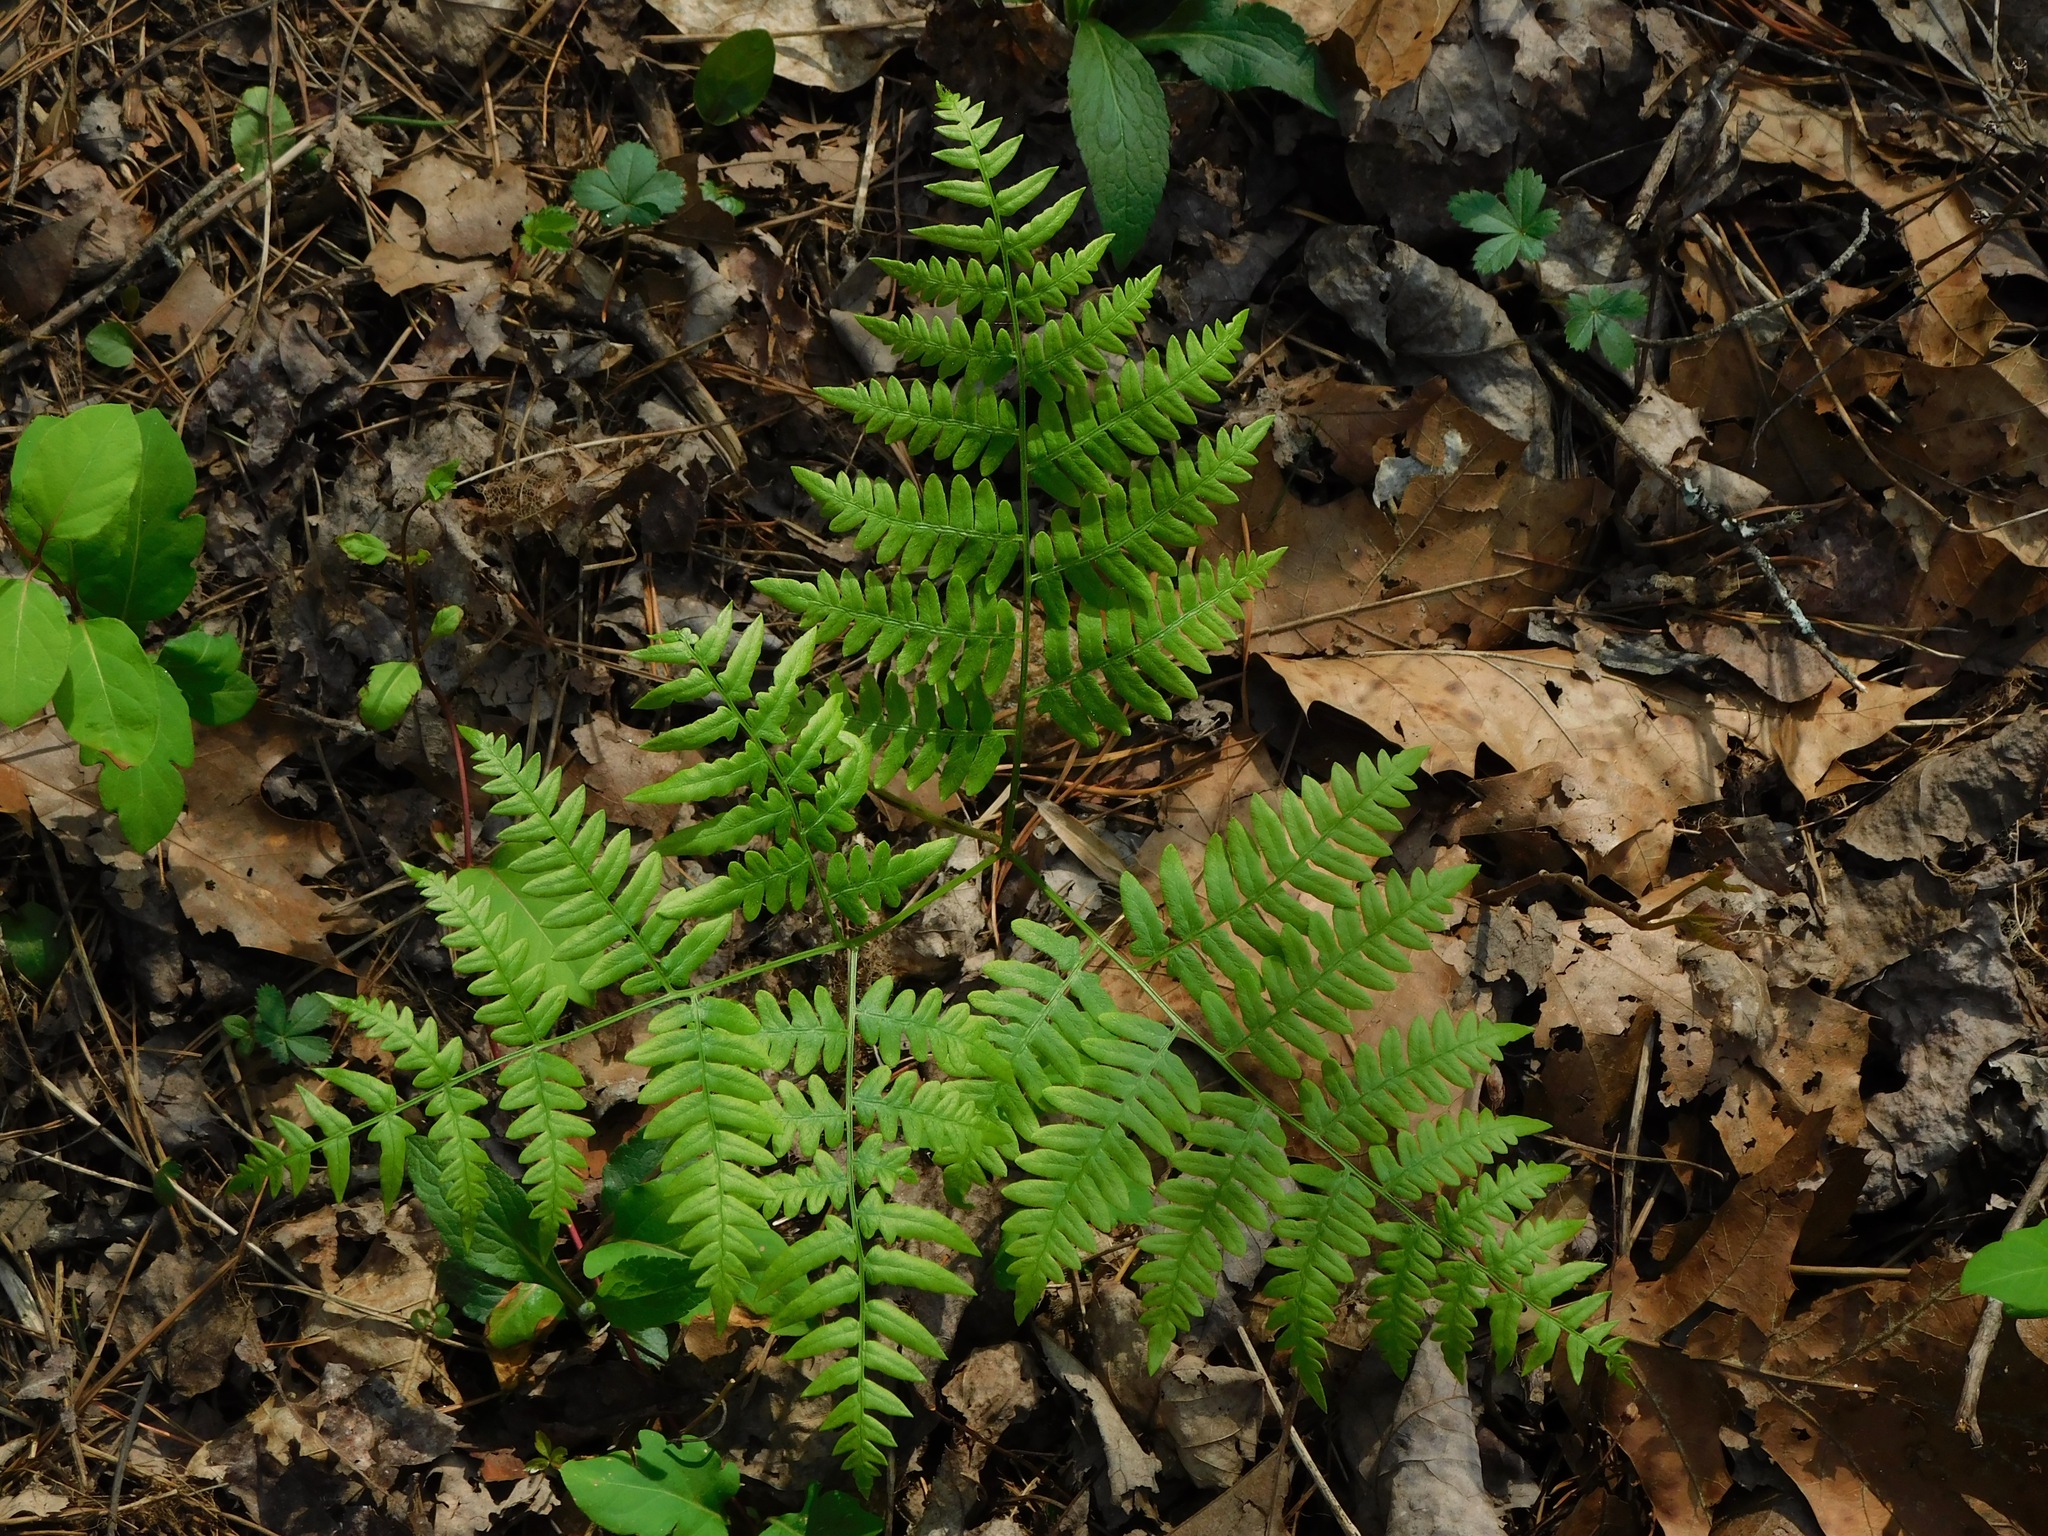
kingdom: Plantae
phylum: Tracheophyta
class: Polypodiopsida
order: Polypodiales
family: Dennstaedtiaceae
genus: Pteridium
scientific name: Pteridium aquilinum
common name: Bracken
